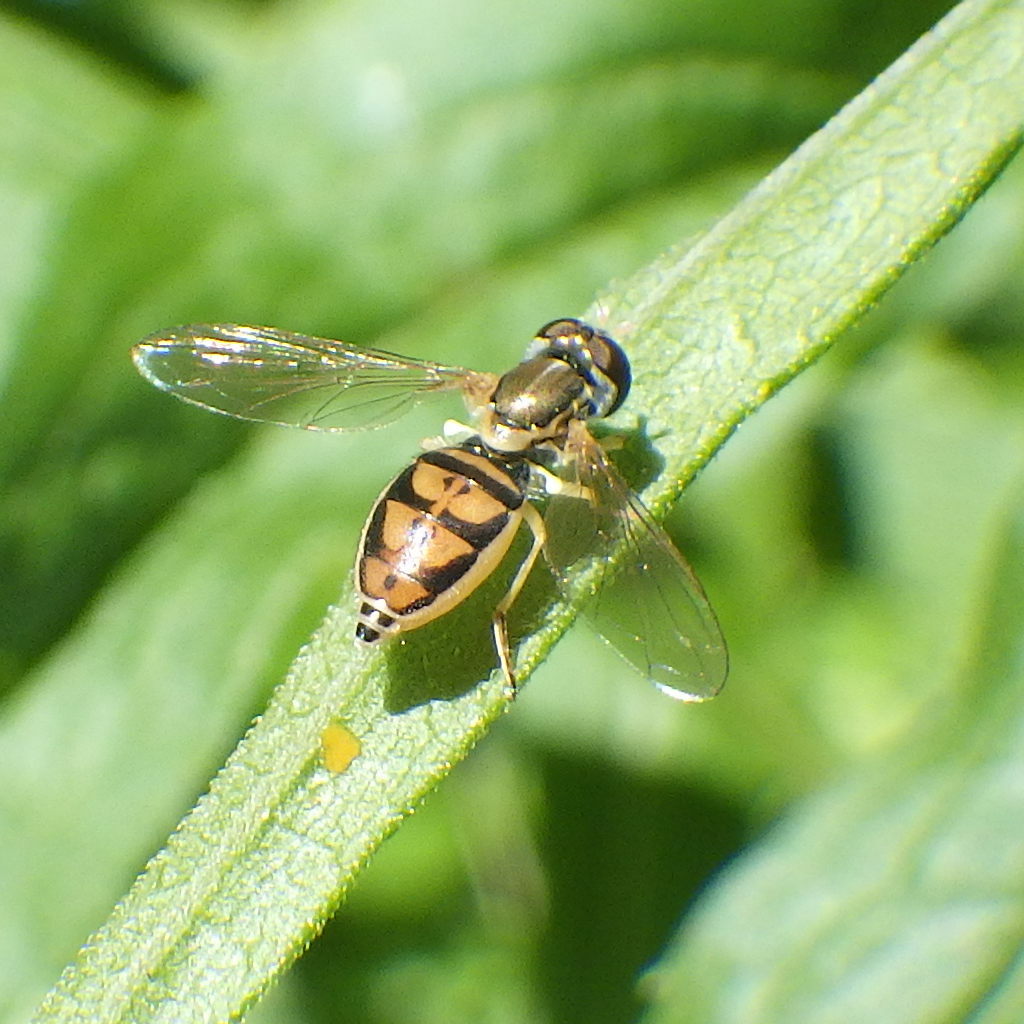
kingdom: Animalia
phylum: Arthropoda
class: Insecta
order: Diptera
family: Syrphidae
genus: Toxomerus
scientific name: Toxomerus marginatus
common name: Syrphid fly
